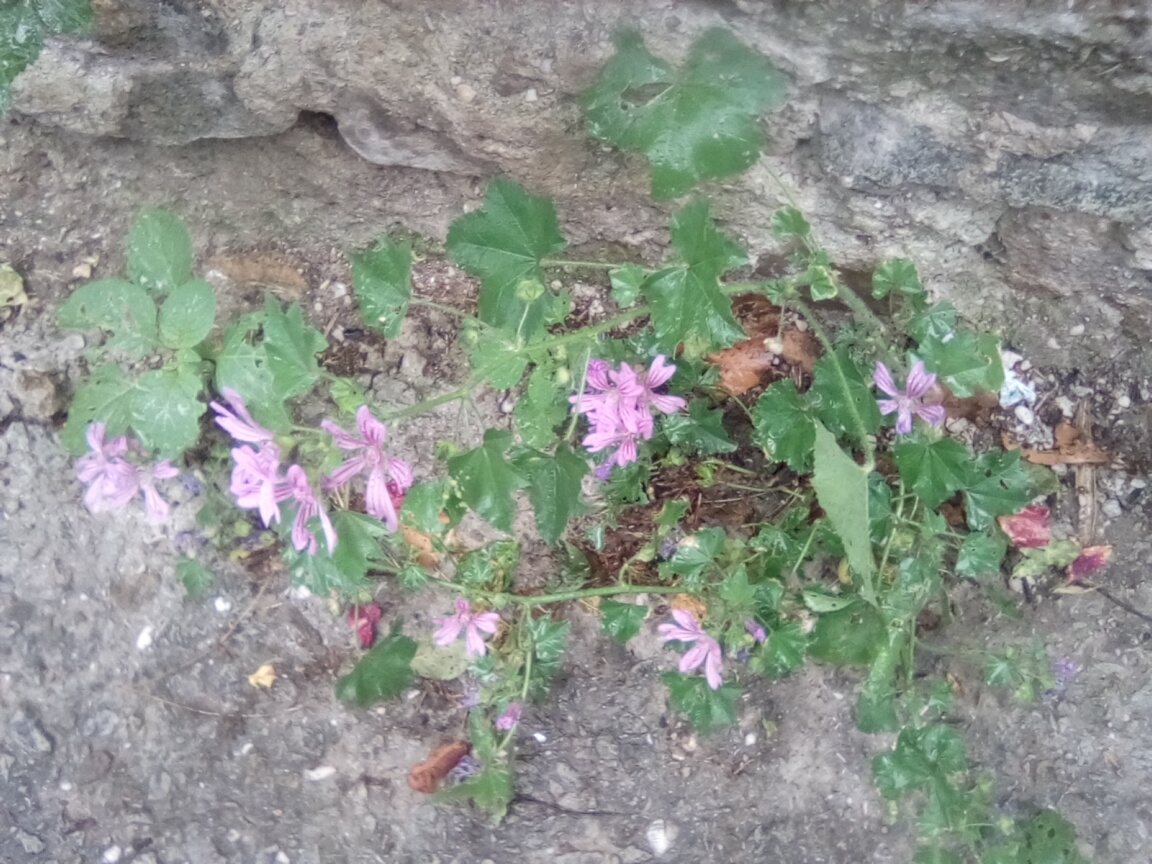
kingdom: Plantae
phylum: Tracheophyta
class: Magnoliopsida
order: Malvales
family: Malvaceae
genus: Malva
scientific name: Malva sylvestris
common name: Common mallow
